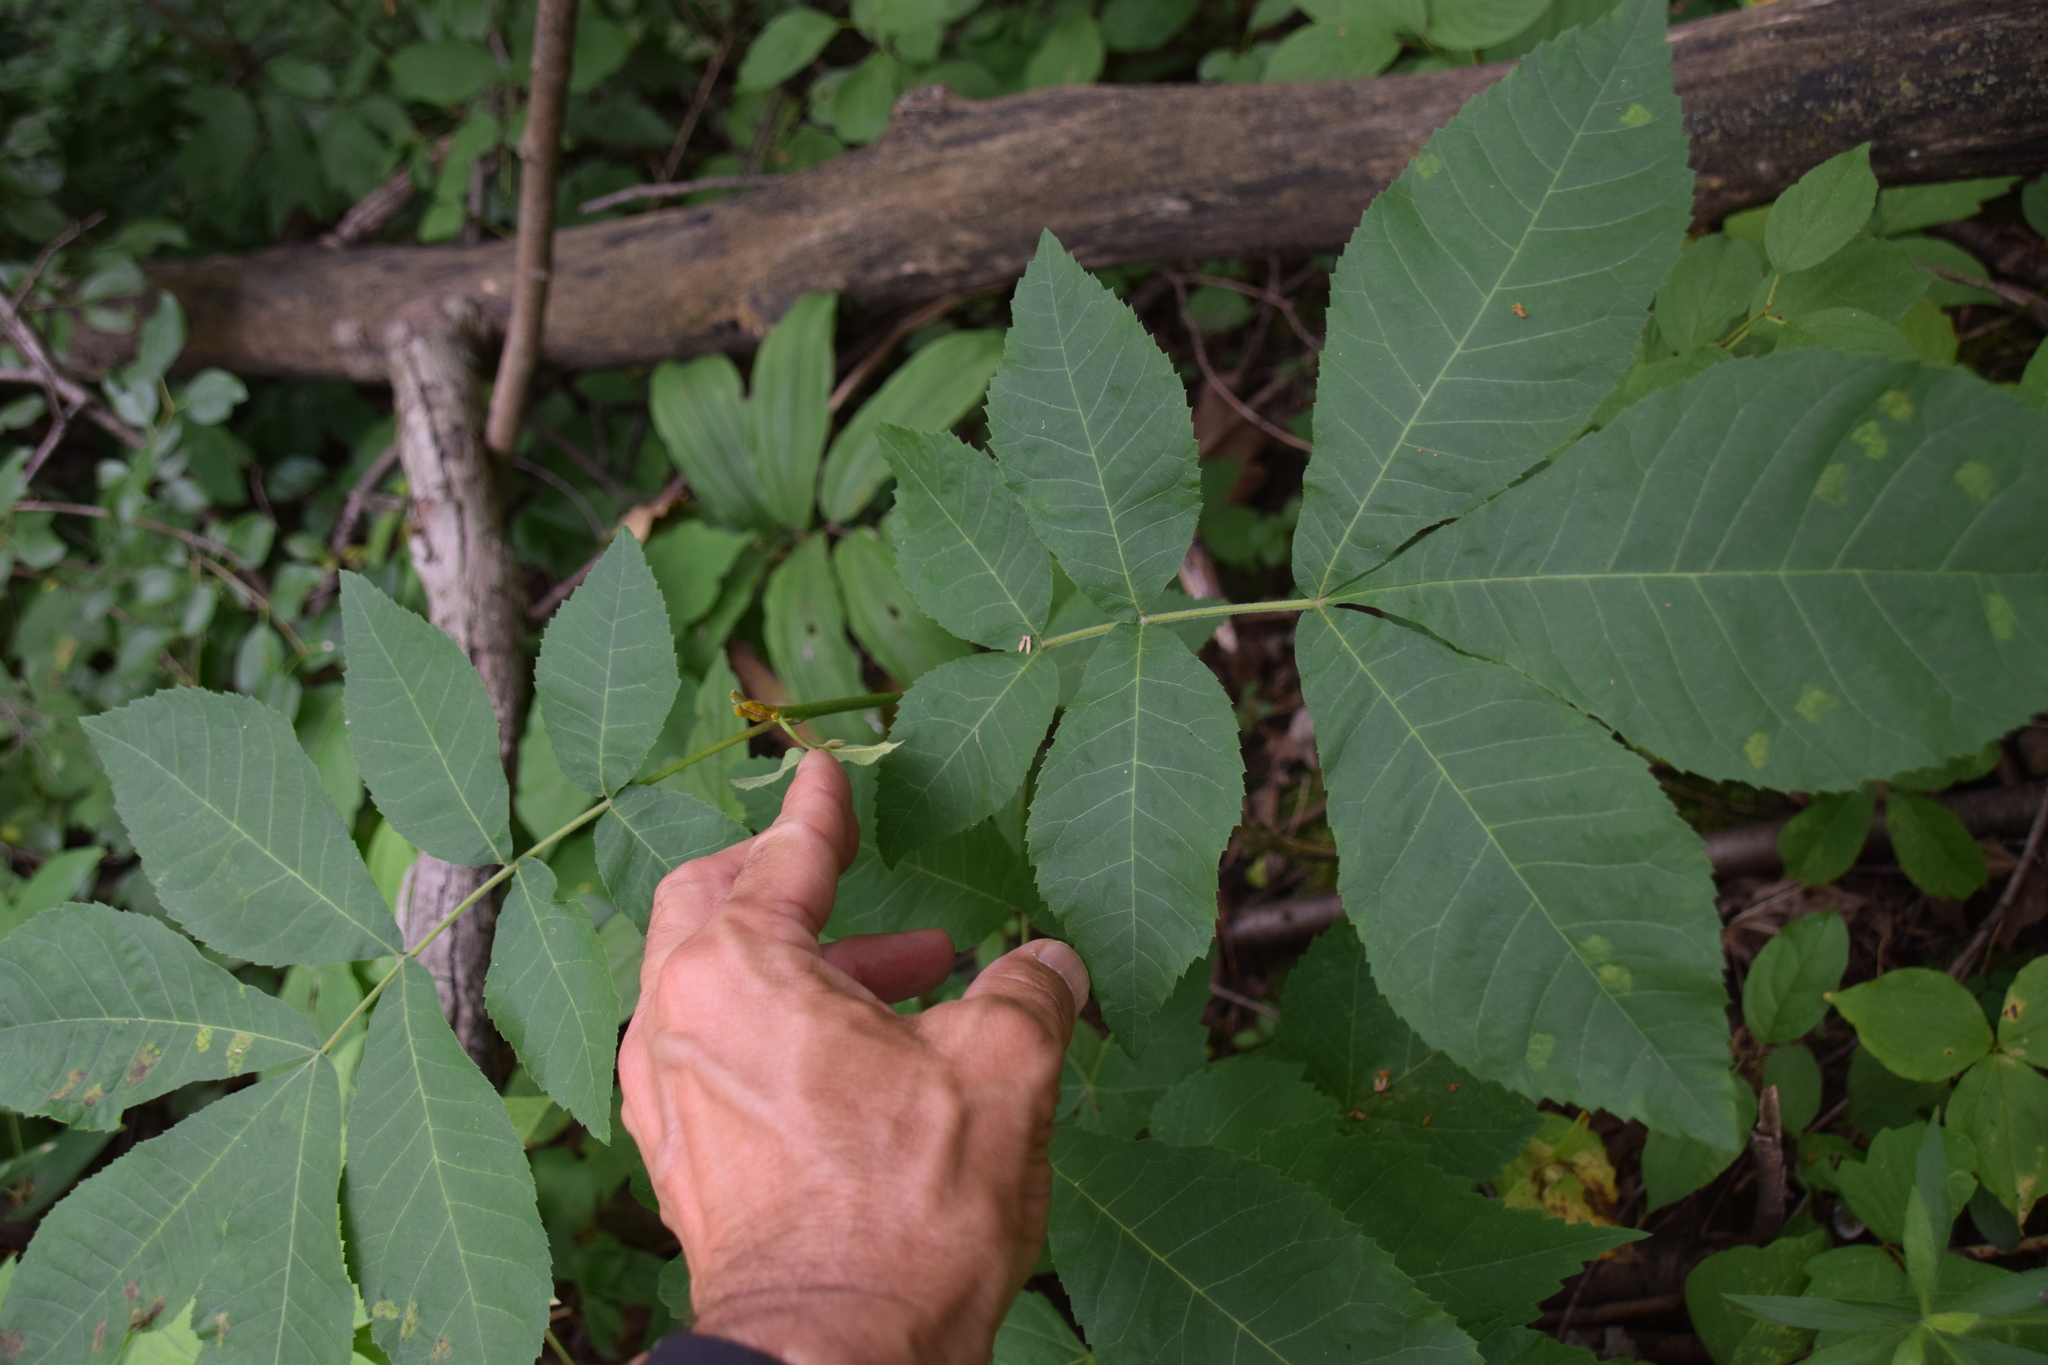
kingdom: Plantae
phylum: Tracheophyta
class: Magnoliopsida
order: Fagales
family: Juglandaceae
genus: Carya
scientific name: Carya cordiformis
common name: Bitternut hickory
